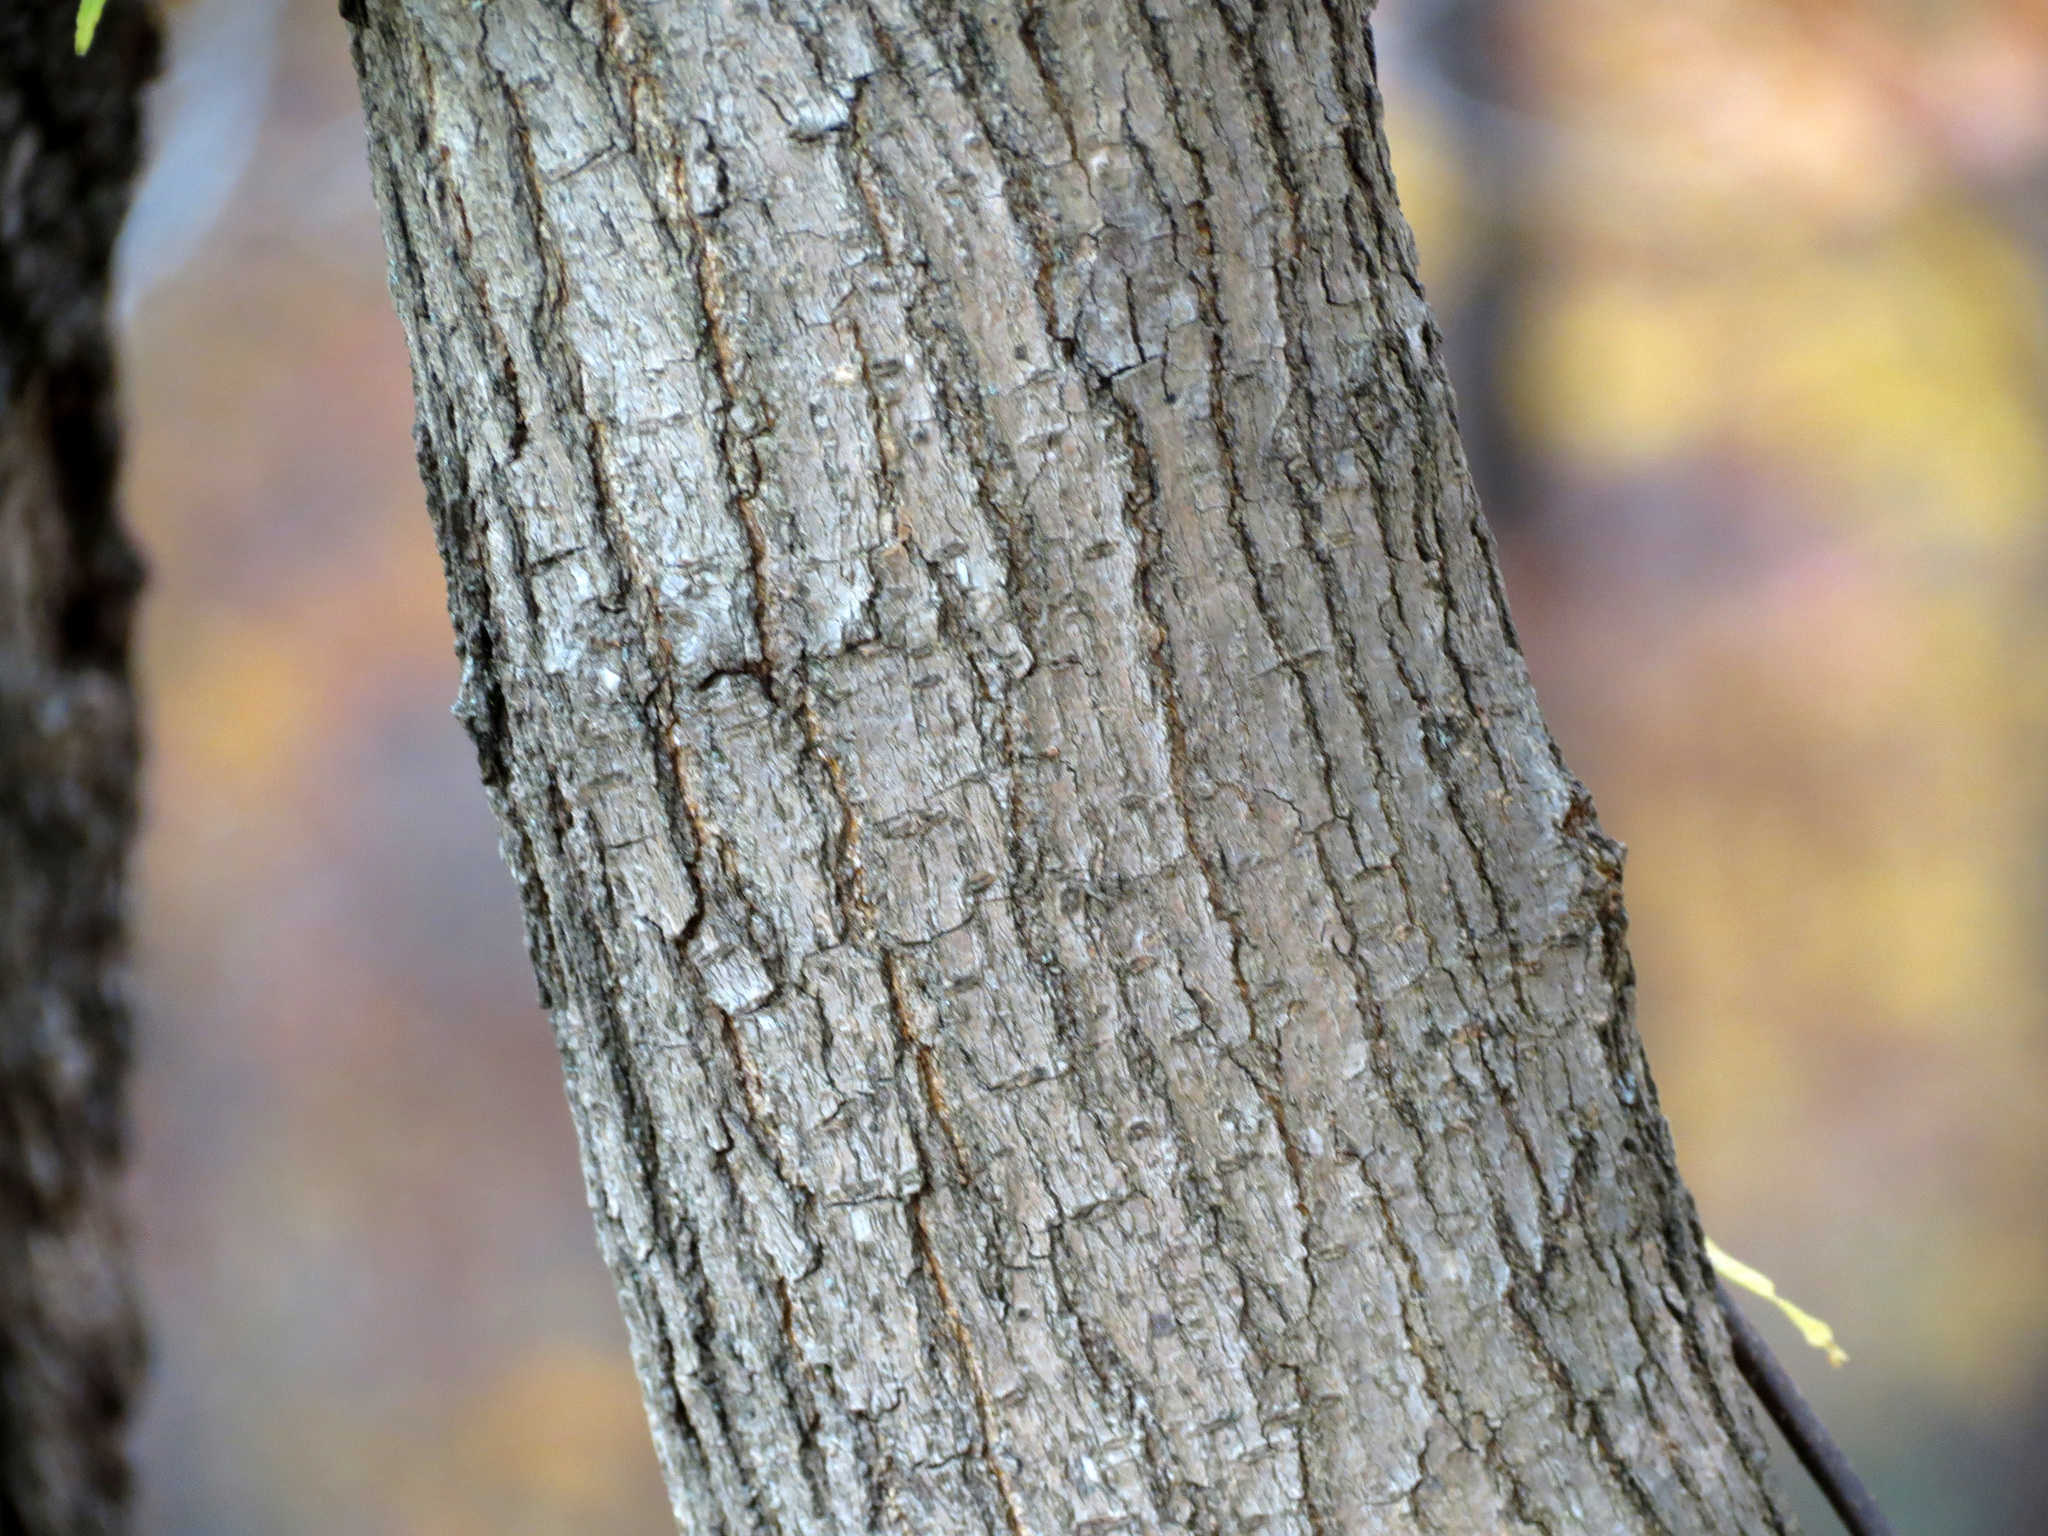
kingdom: Plantae
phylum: Tracheophyta
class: Magnoliopsida
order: Rosales
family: Moraceae
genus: Morus
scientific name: Morus alba
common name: White mulberry
